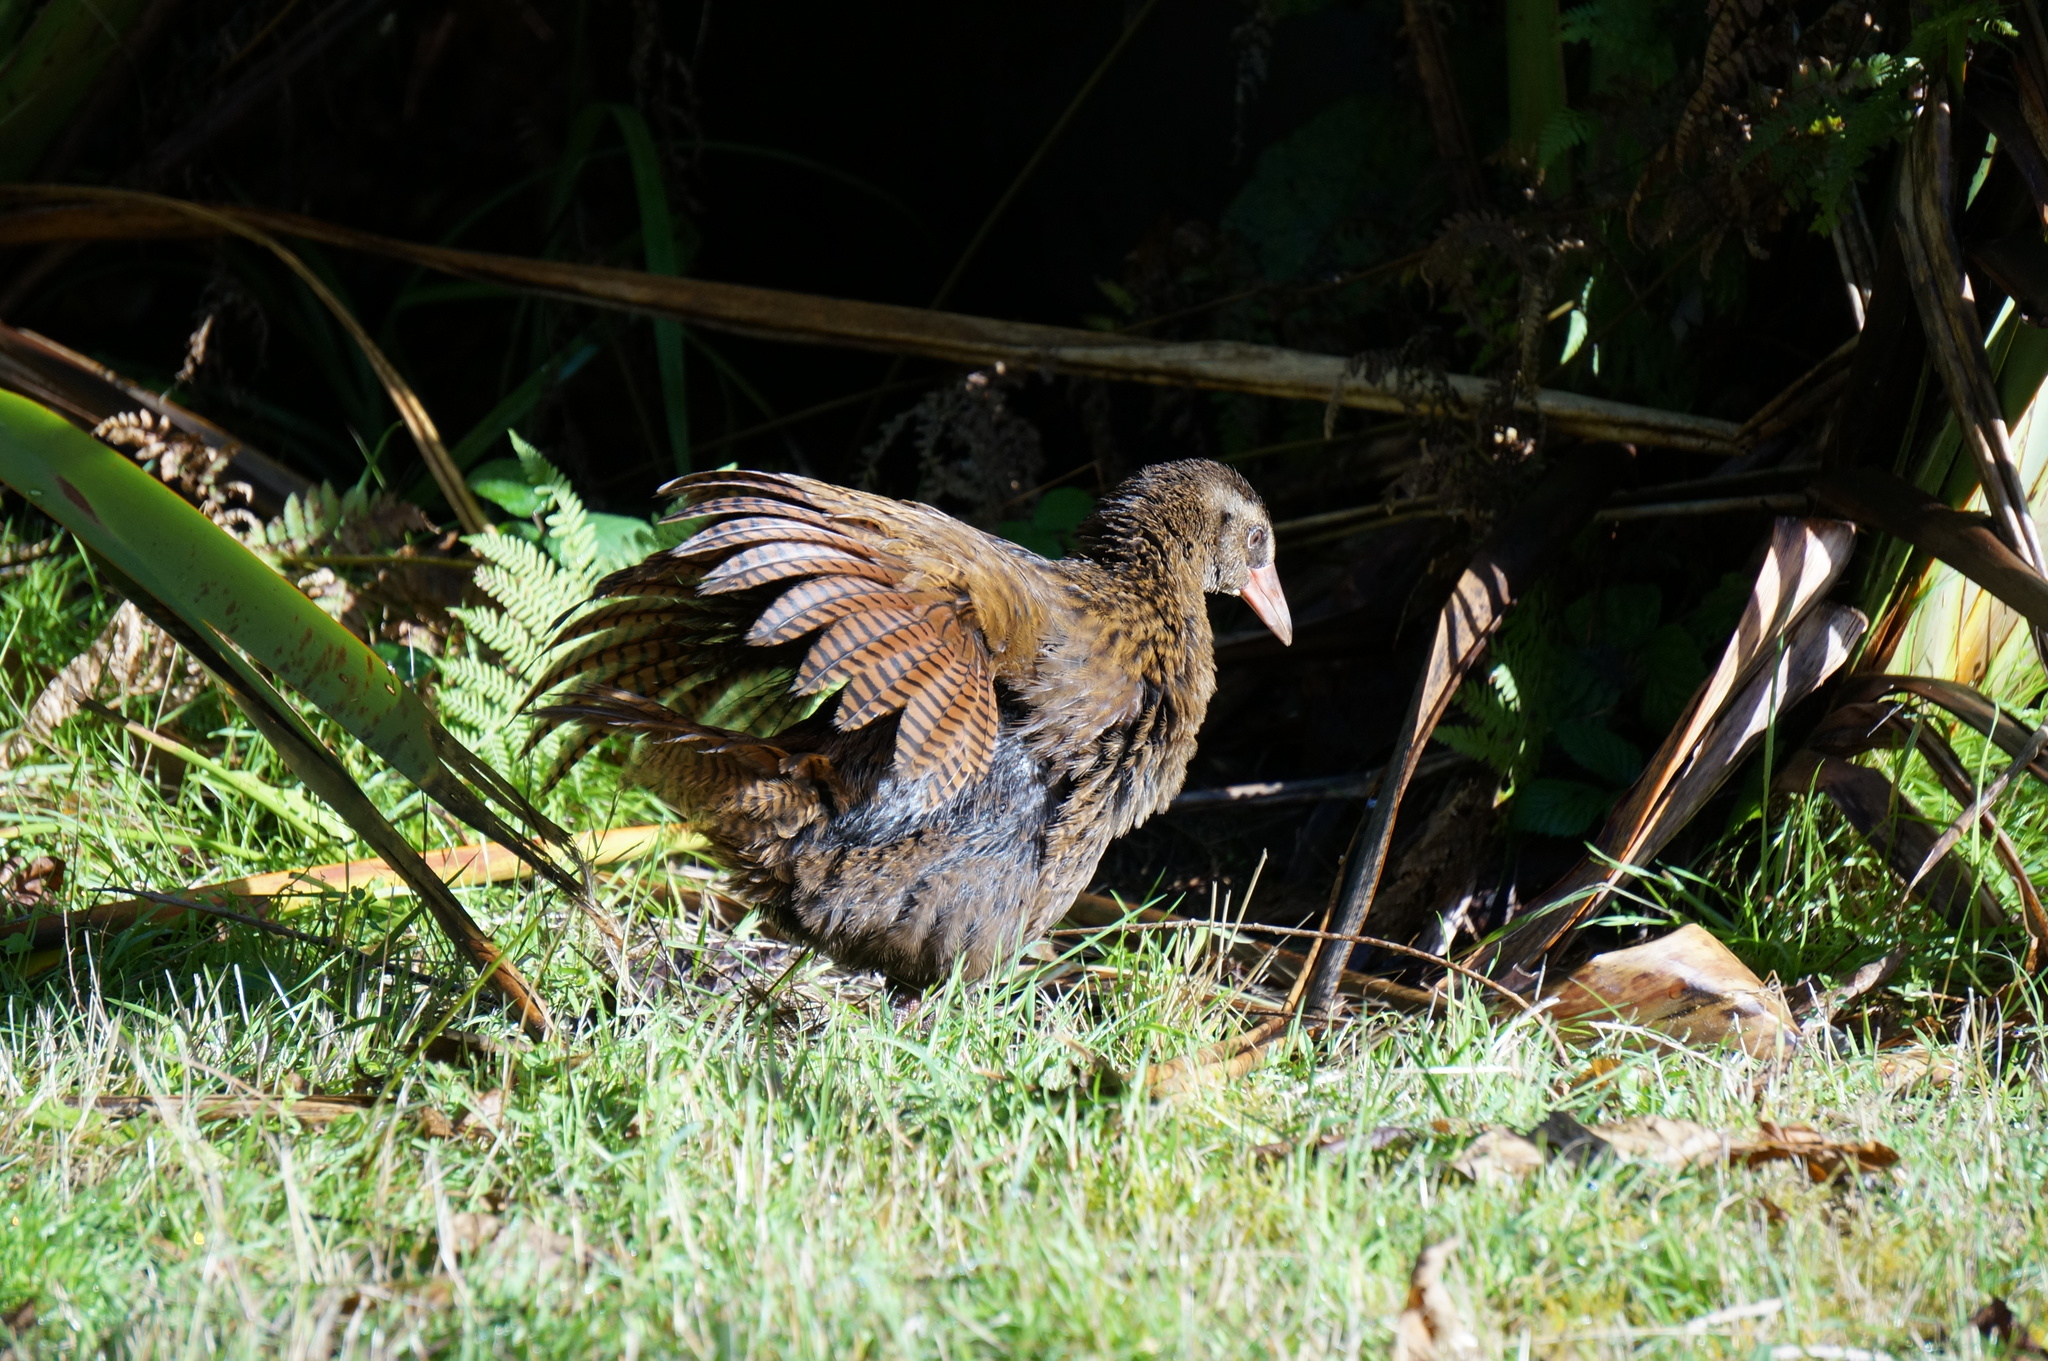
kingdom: Animalia
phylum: Chordata
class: Aves
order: Gruiformes
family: Rallidae
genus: Gallirallus
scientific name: Gallirallus australis
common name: Weka
